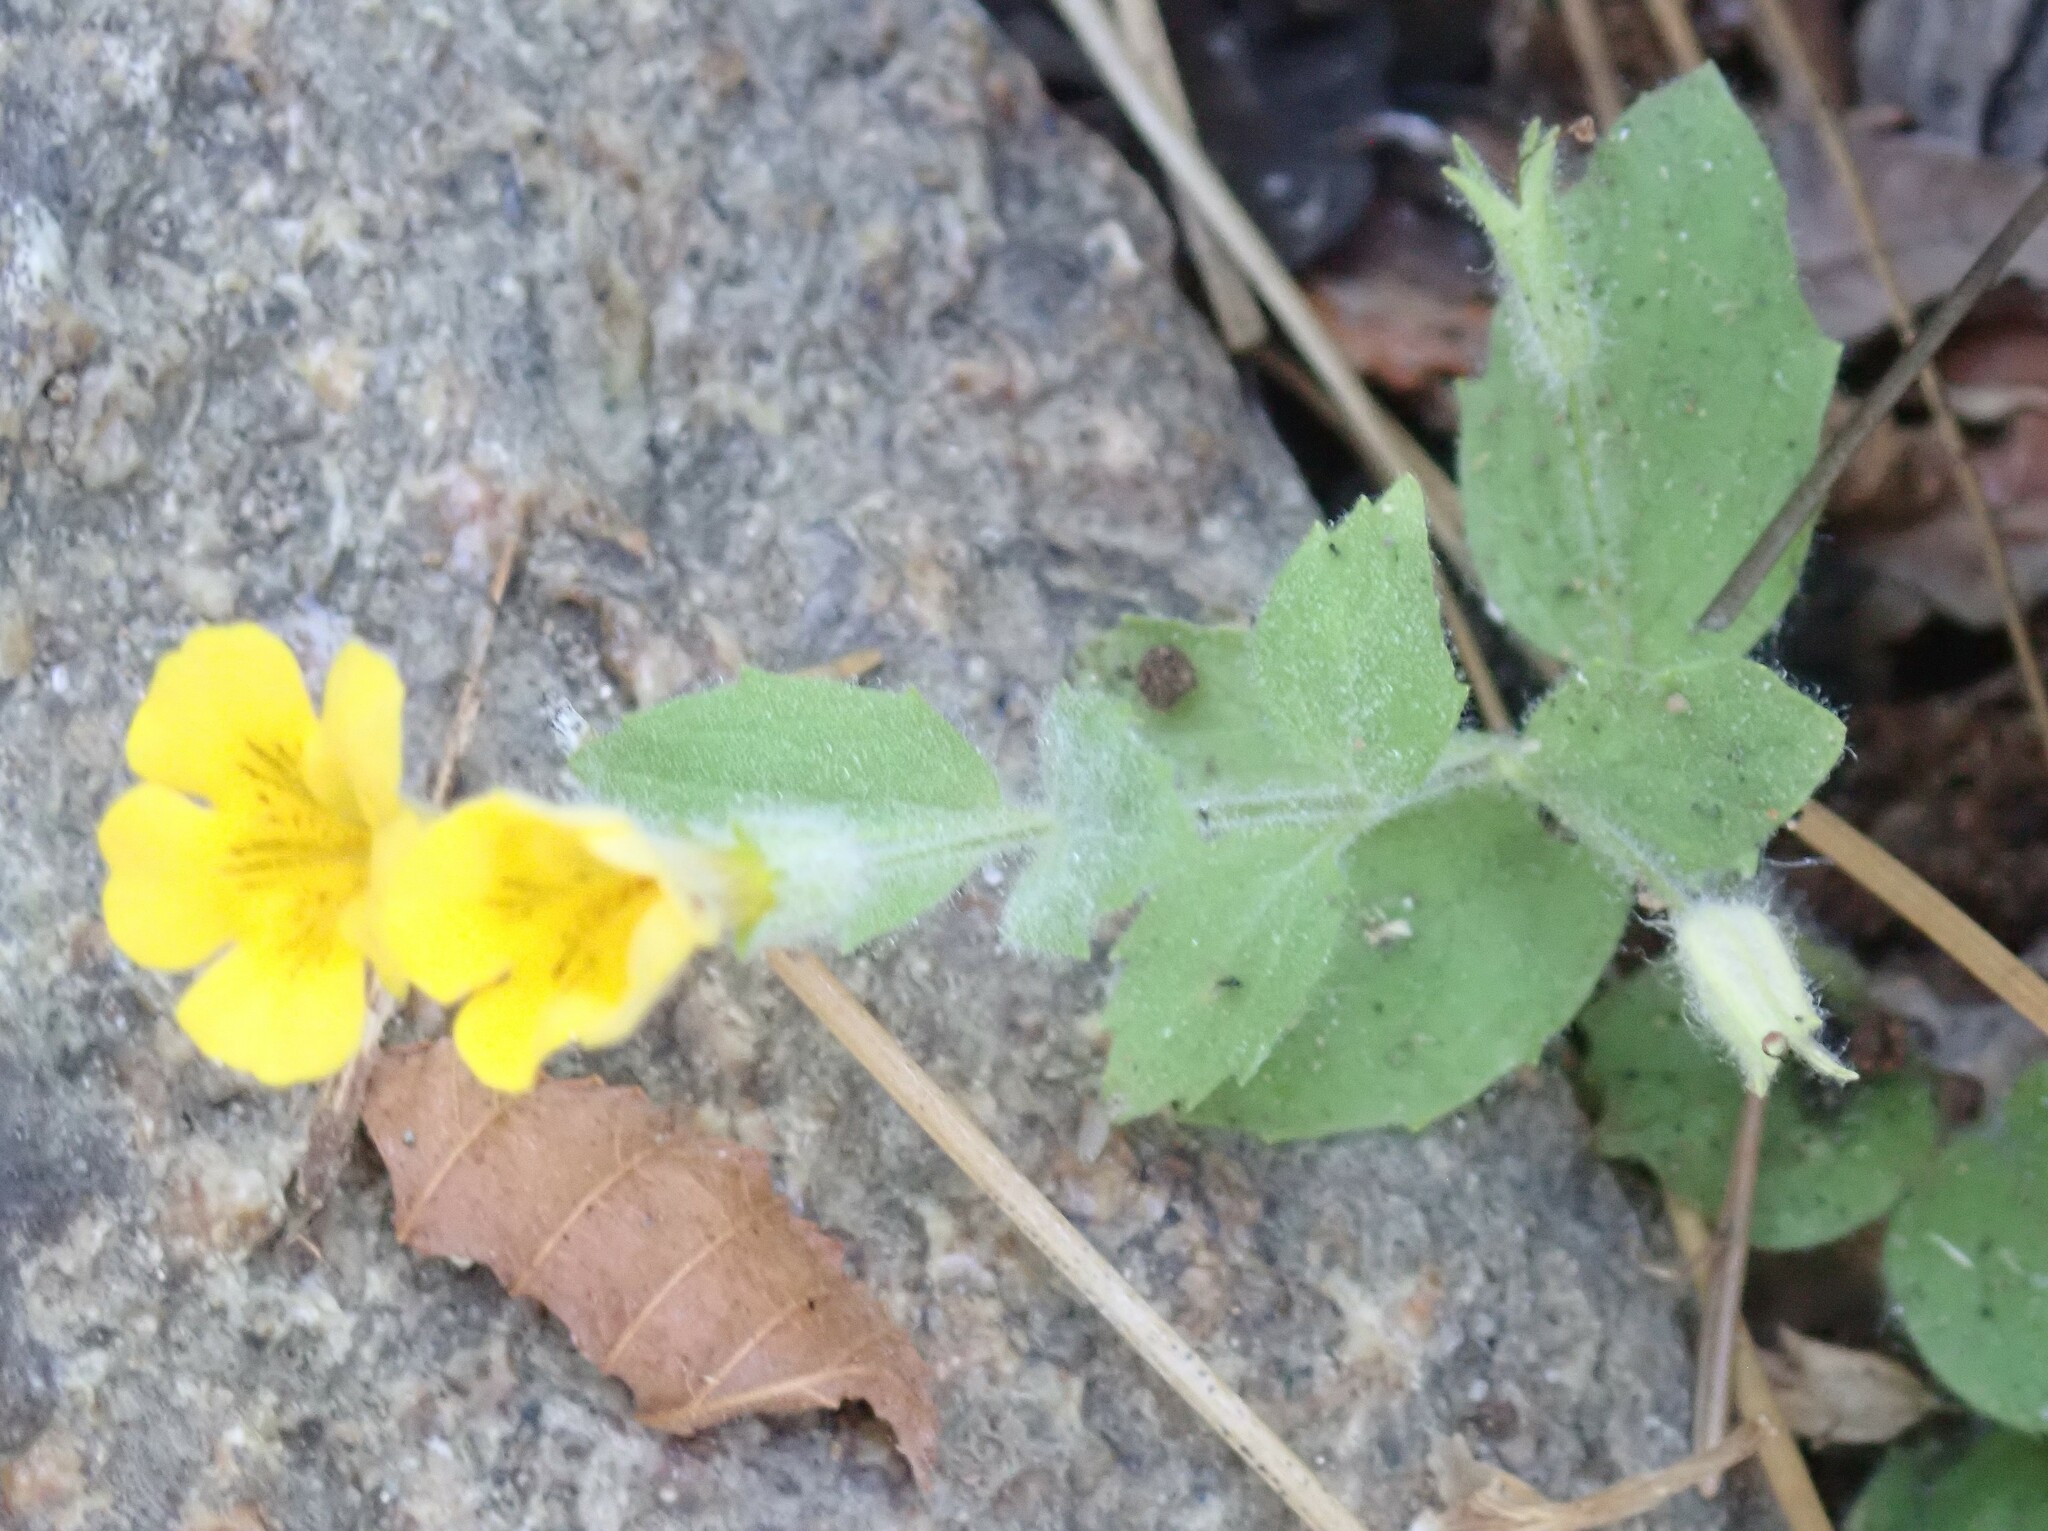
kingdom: Plantae
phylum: Tracheophyta
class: Magnoliopsida
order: Lamiales
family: Phrymaceae
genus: Erythranthe
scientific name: Erythranthe moschata
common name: Muskflower
